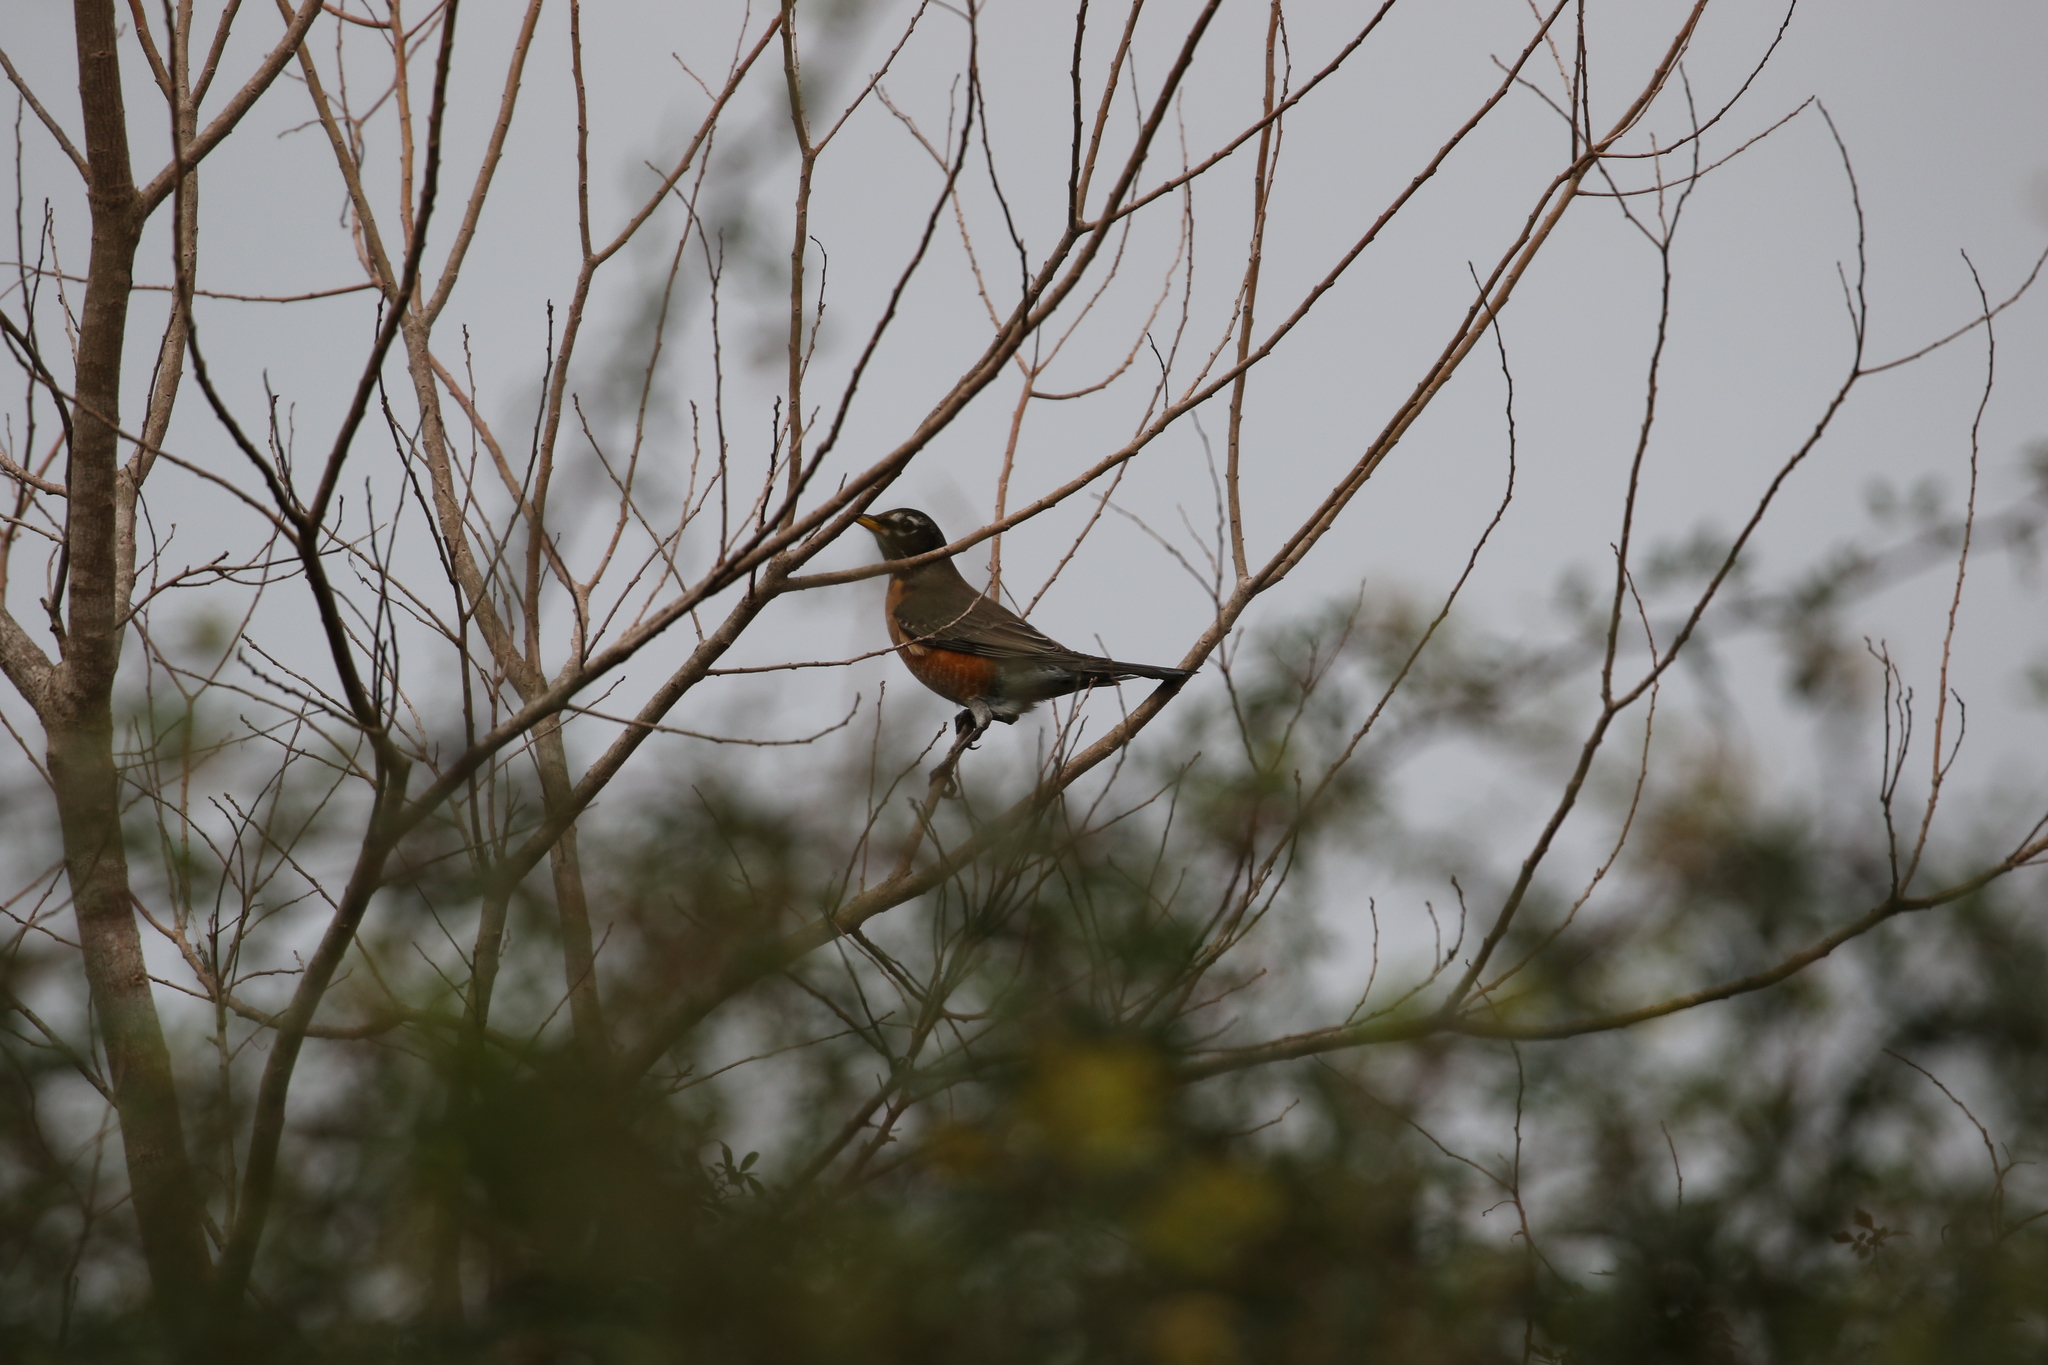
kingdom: Animalia
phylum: Chordata
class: Aves
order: Passeriformes
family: Turdidae
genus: Turdus
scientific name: Turdus migratorius
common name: American robin
